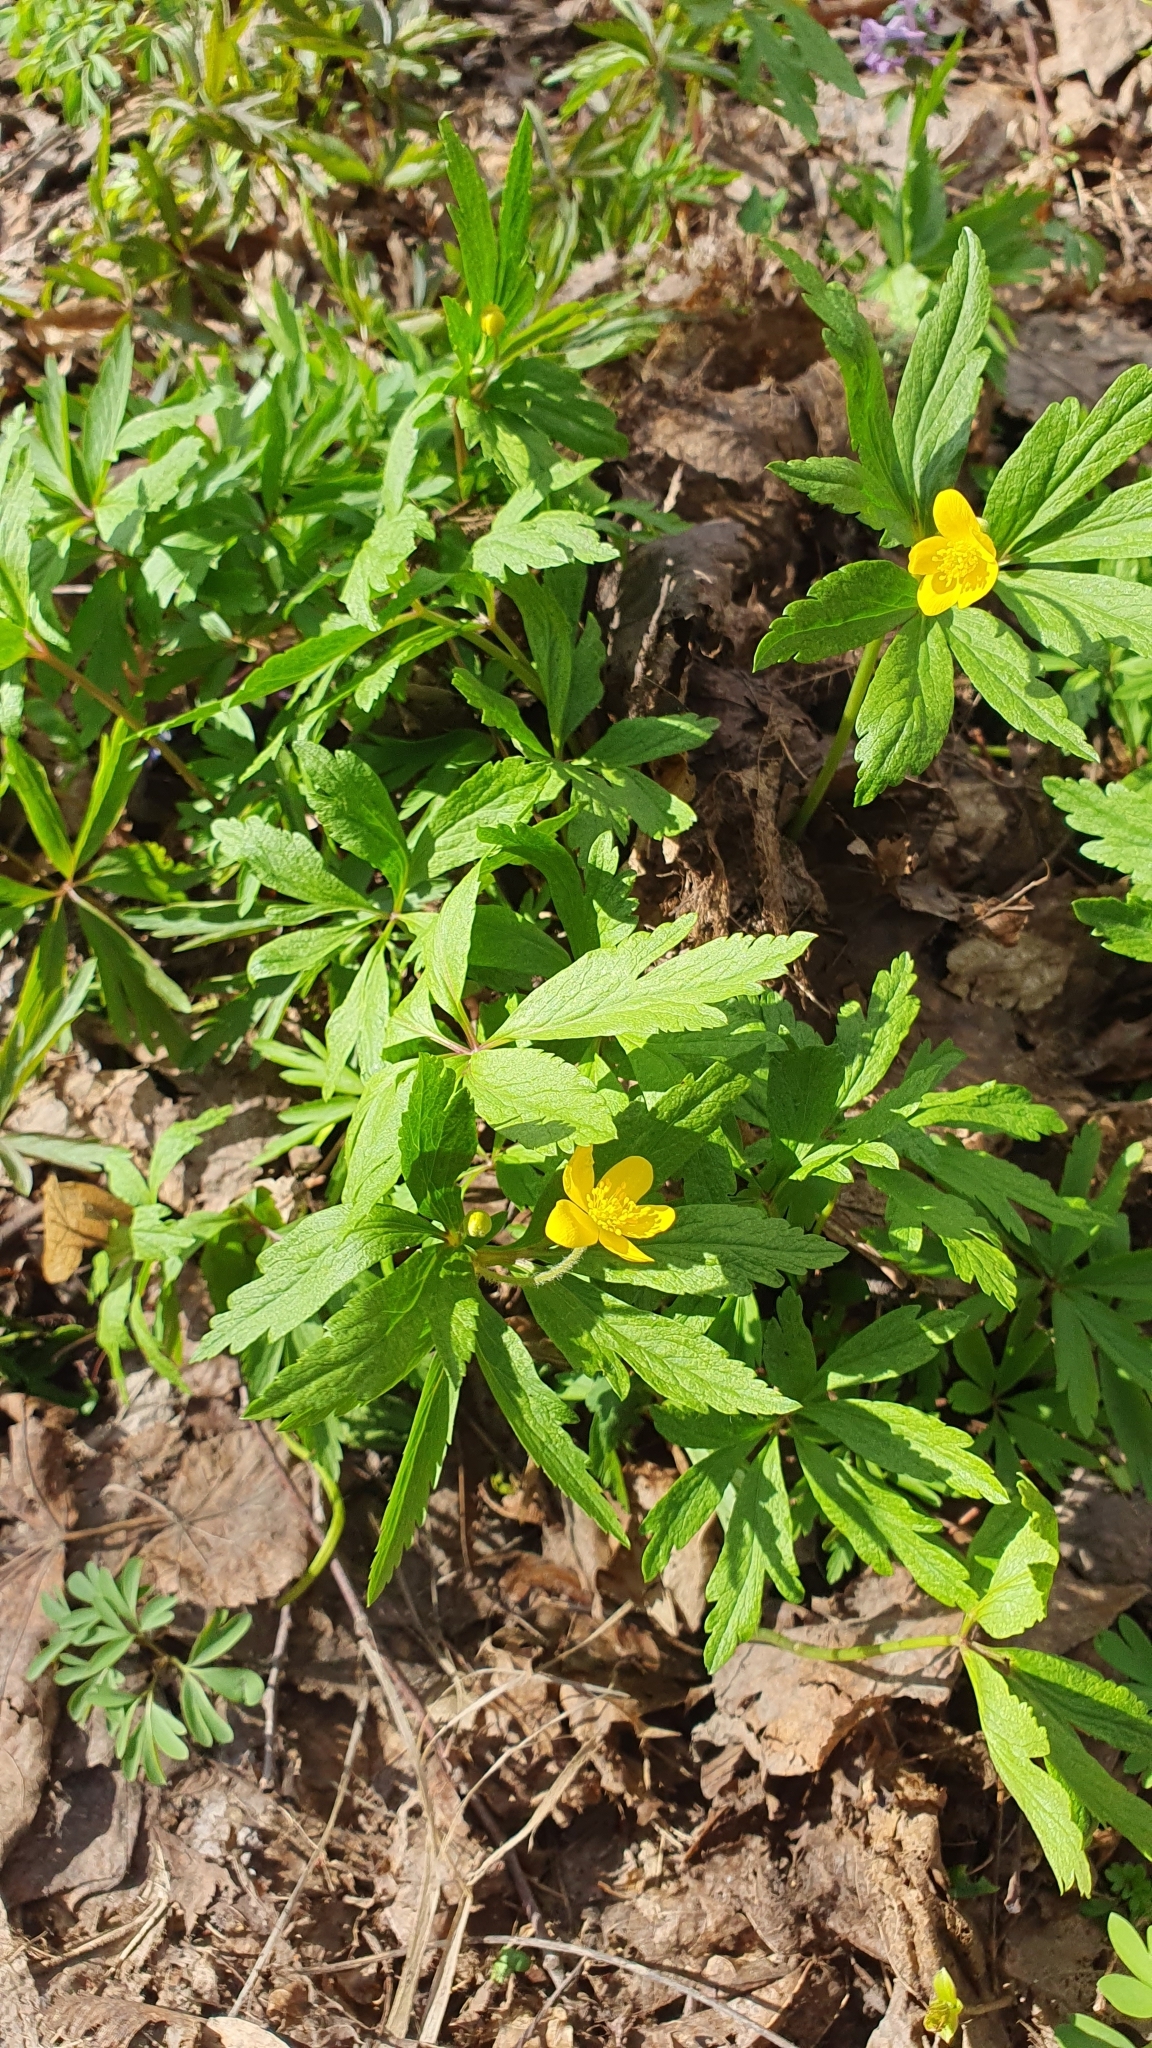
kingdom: Plantae
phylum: Tracheophyta
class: Magnoliopsida
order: Ranunculales
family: Ranunculaceae
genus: Anemone
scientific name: Anemone ranunculoides
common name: Yellow anemone
